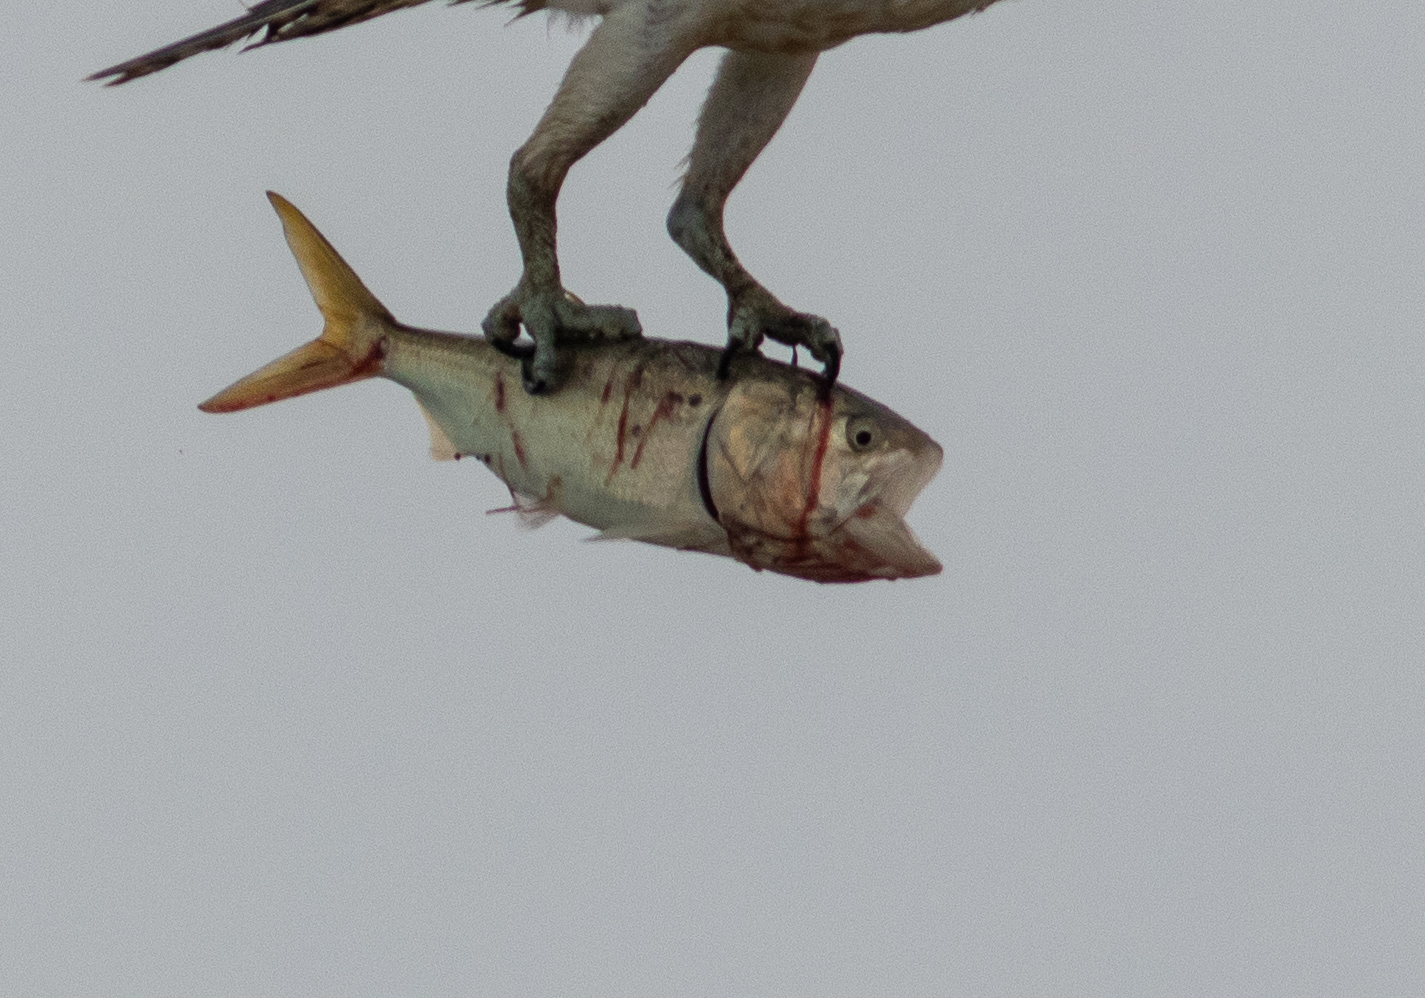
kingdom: Animalia
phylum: Chordata
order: Clupeiformes
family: Clupeidae
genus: Brevoortia
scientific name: Brevoortia tyrannus
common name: Atlantic menhaden
